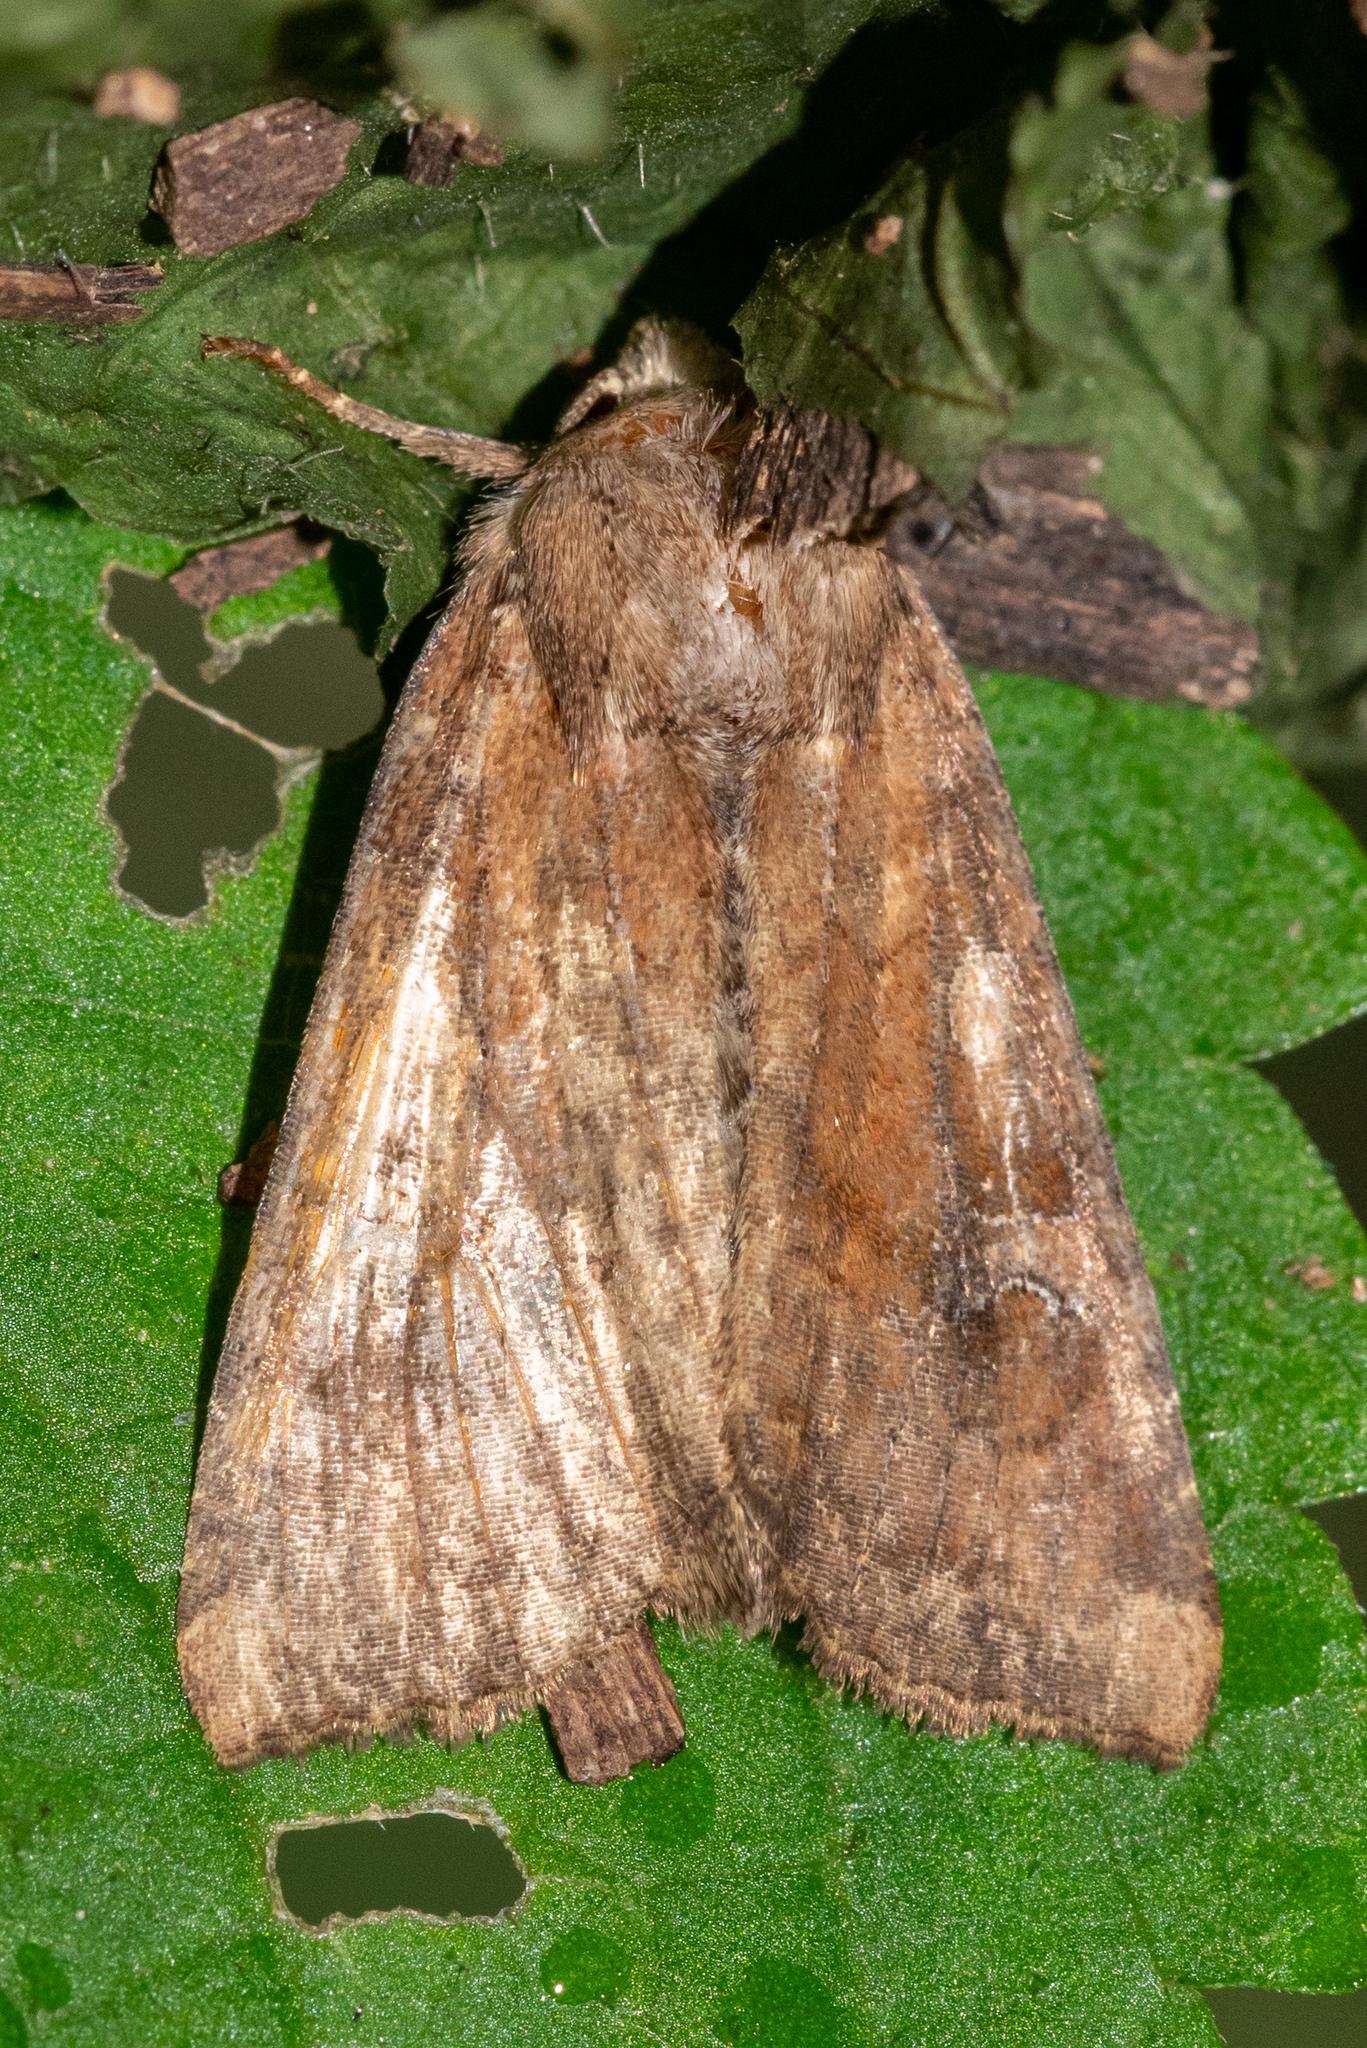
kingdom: Animalia
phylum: Arthropoda
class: Insecta
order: Lepidoptera
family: Noctuidae
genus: Loscopia
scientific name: Loscopia velata
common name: Veiled ear moth
